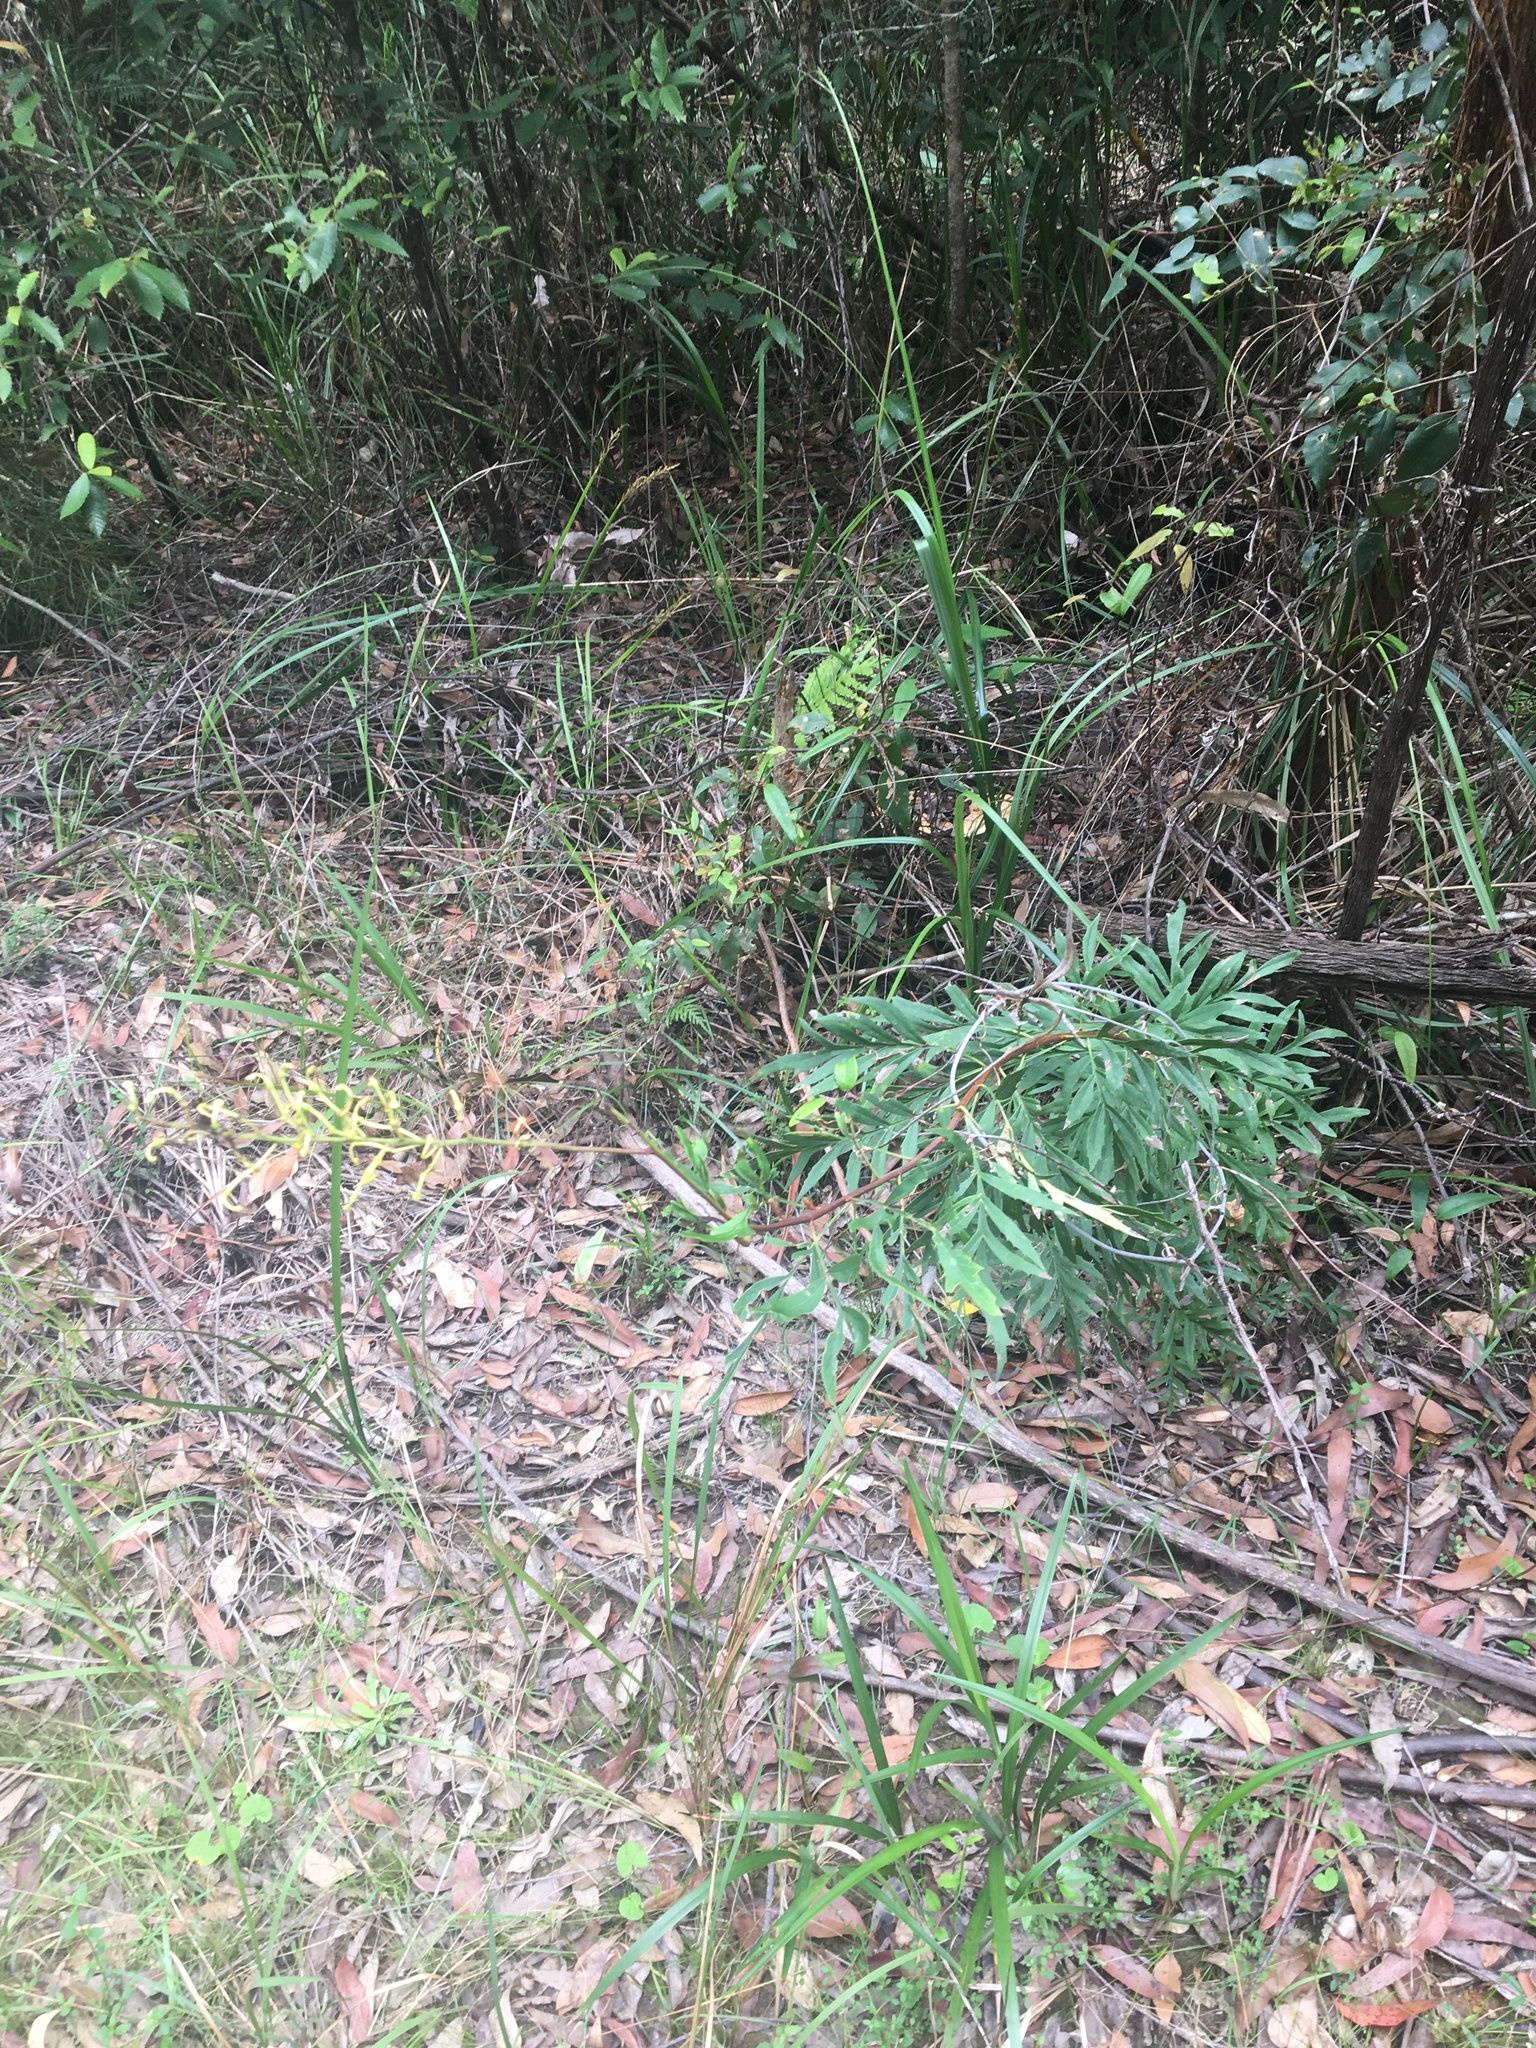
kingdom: Plantae
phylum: Tracheophyta
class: Magnoliopsida
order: Proteales
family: Proteaceae
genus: Lomatia
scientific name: Lomatia silaifolia
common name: Crinklebush
